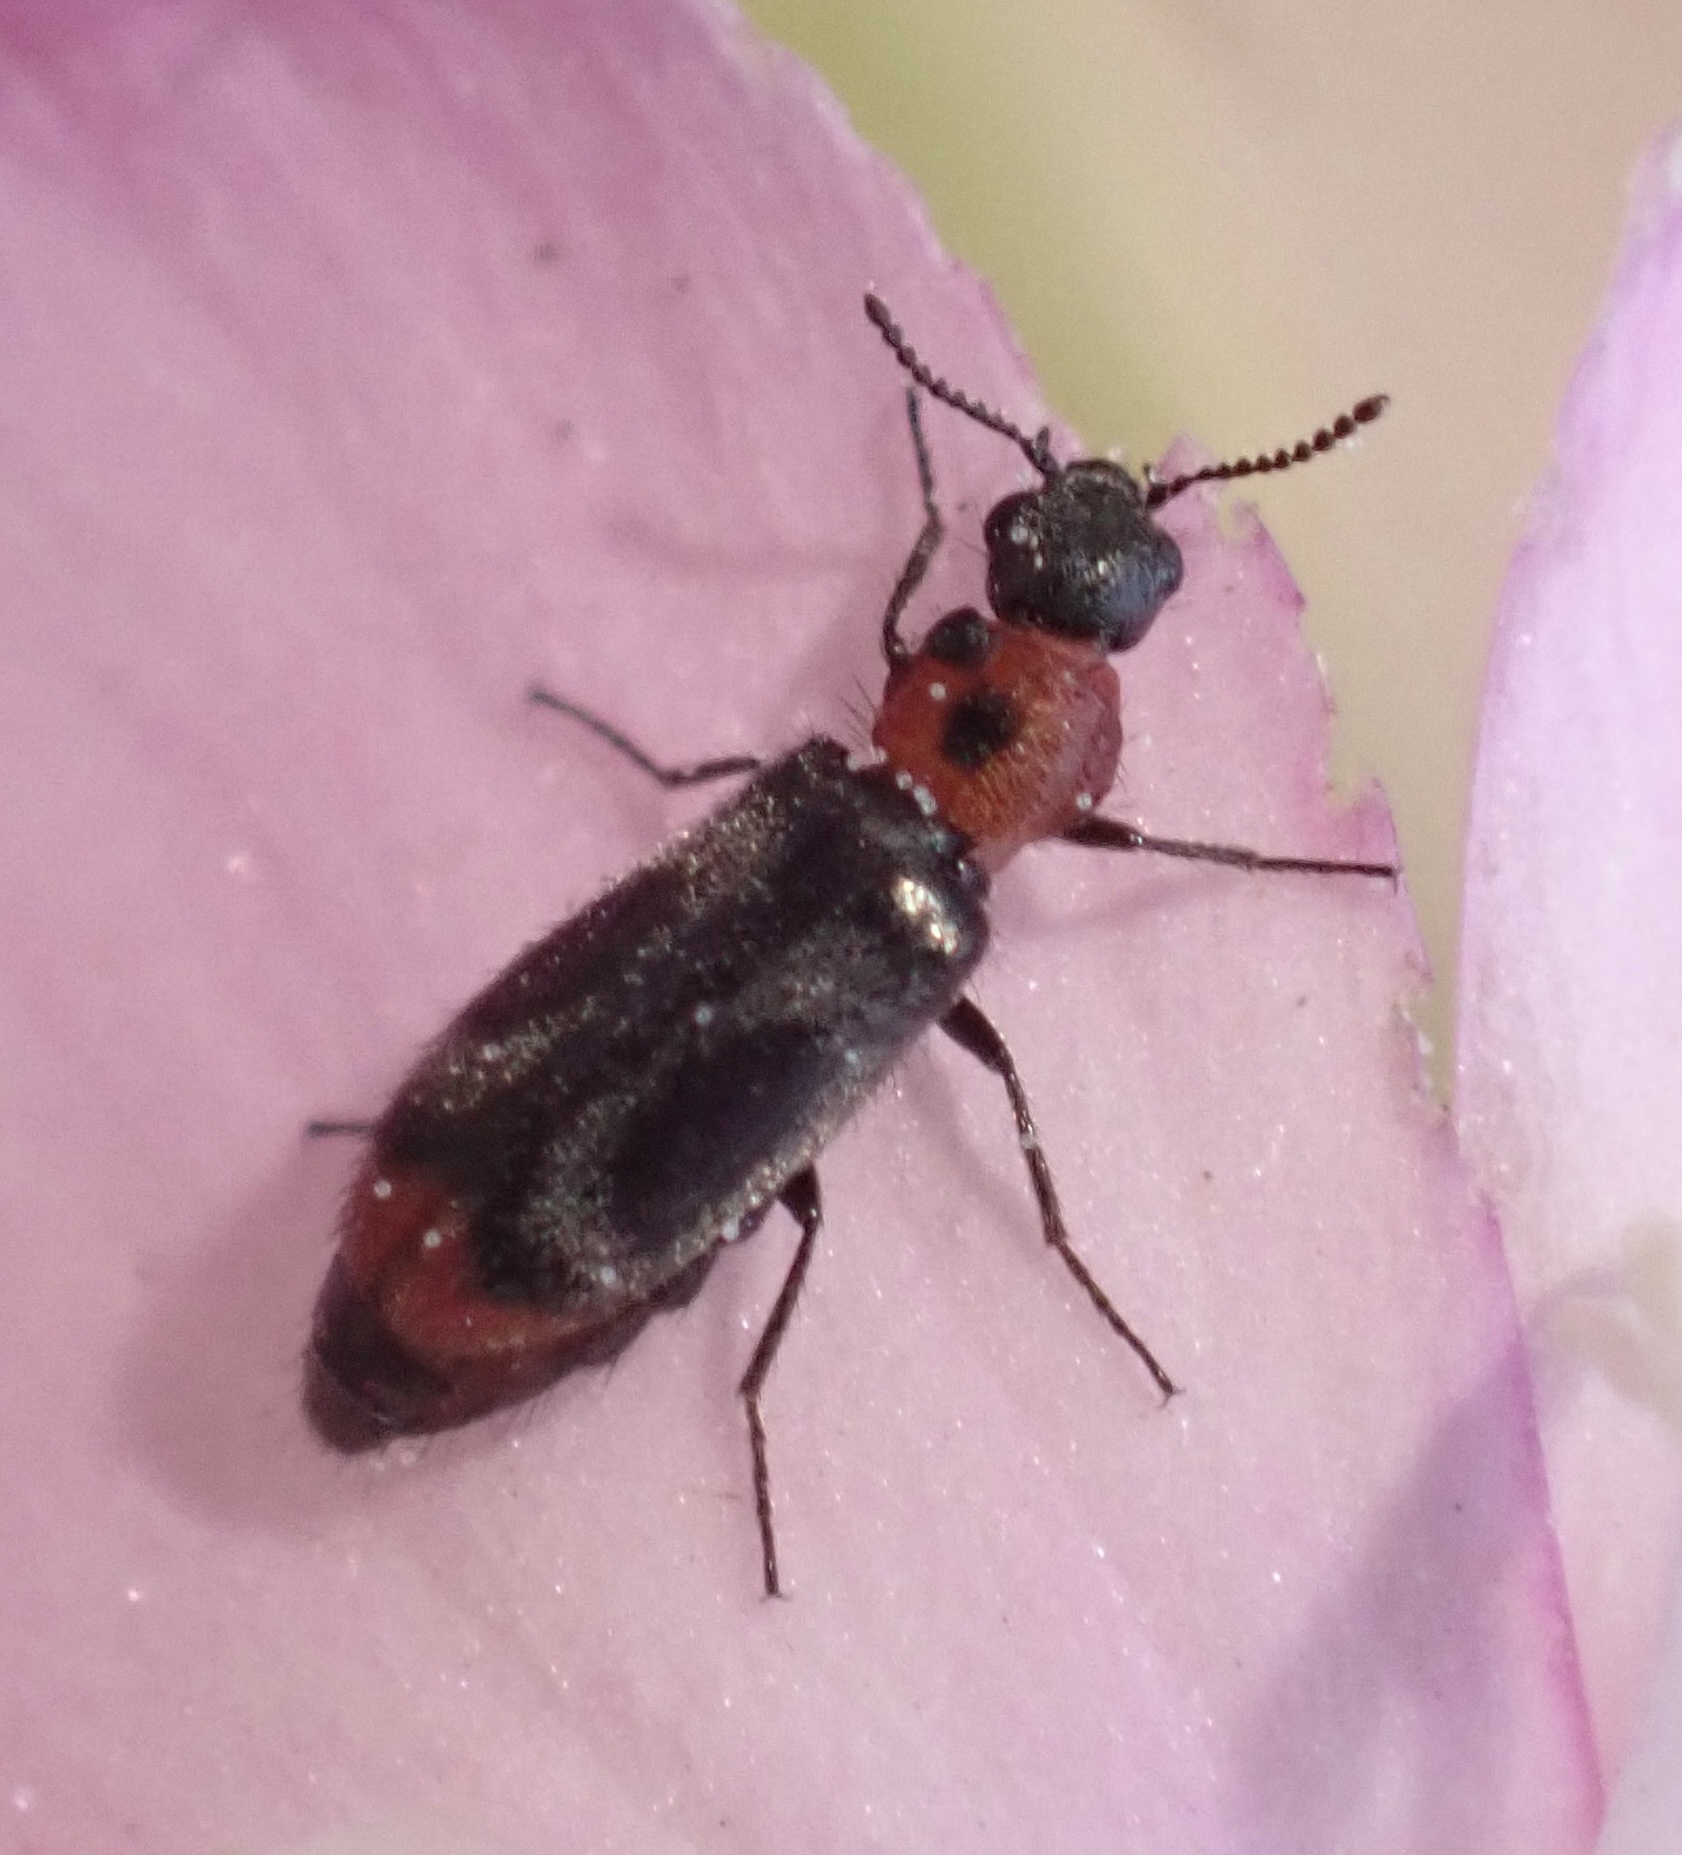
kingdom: Animalia
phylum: Arthropoda
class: Insecta
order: Coleoptera
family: Melyridae
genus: Dasytes
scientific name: Dasytes terminalis
